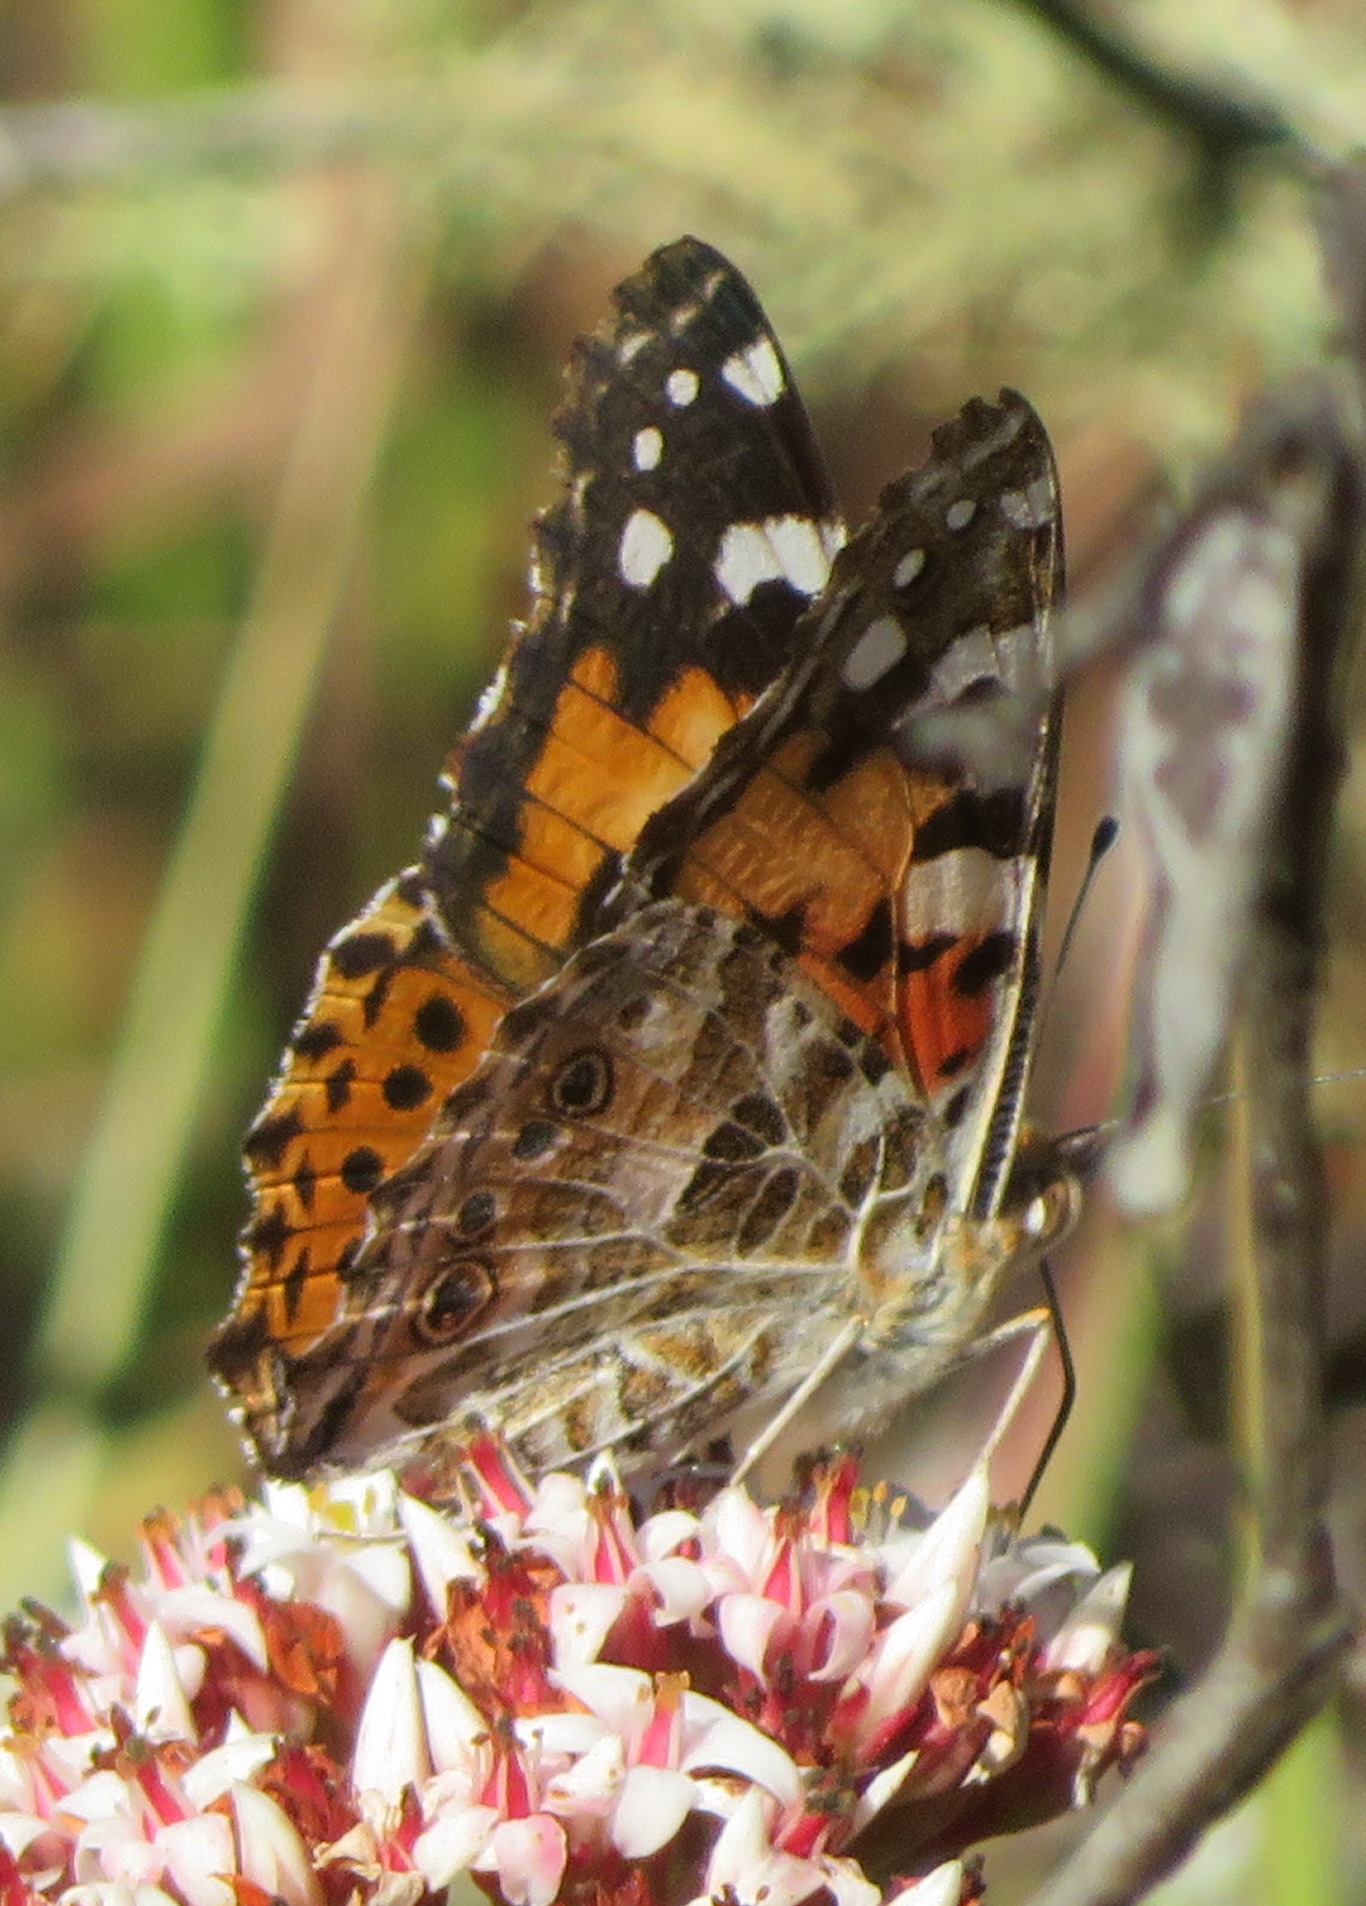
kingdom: Animalia
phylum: Arthropoda
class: Insecta
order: Lepidoptera
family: Nymphalidae
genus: Vanessa
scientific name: Vanessa cardui
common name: Painted lady
